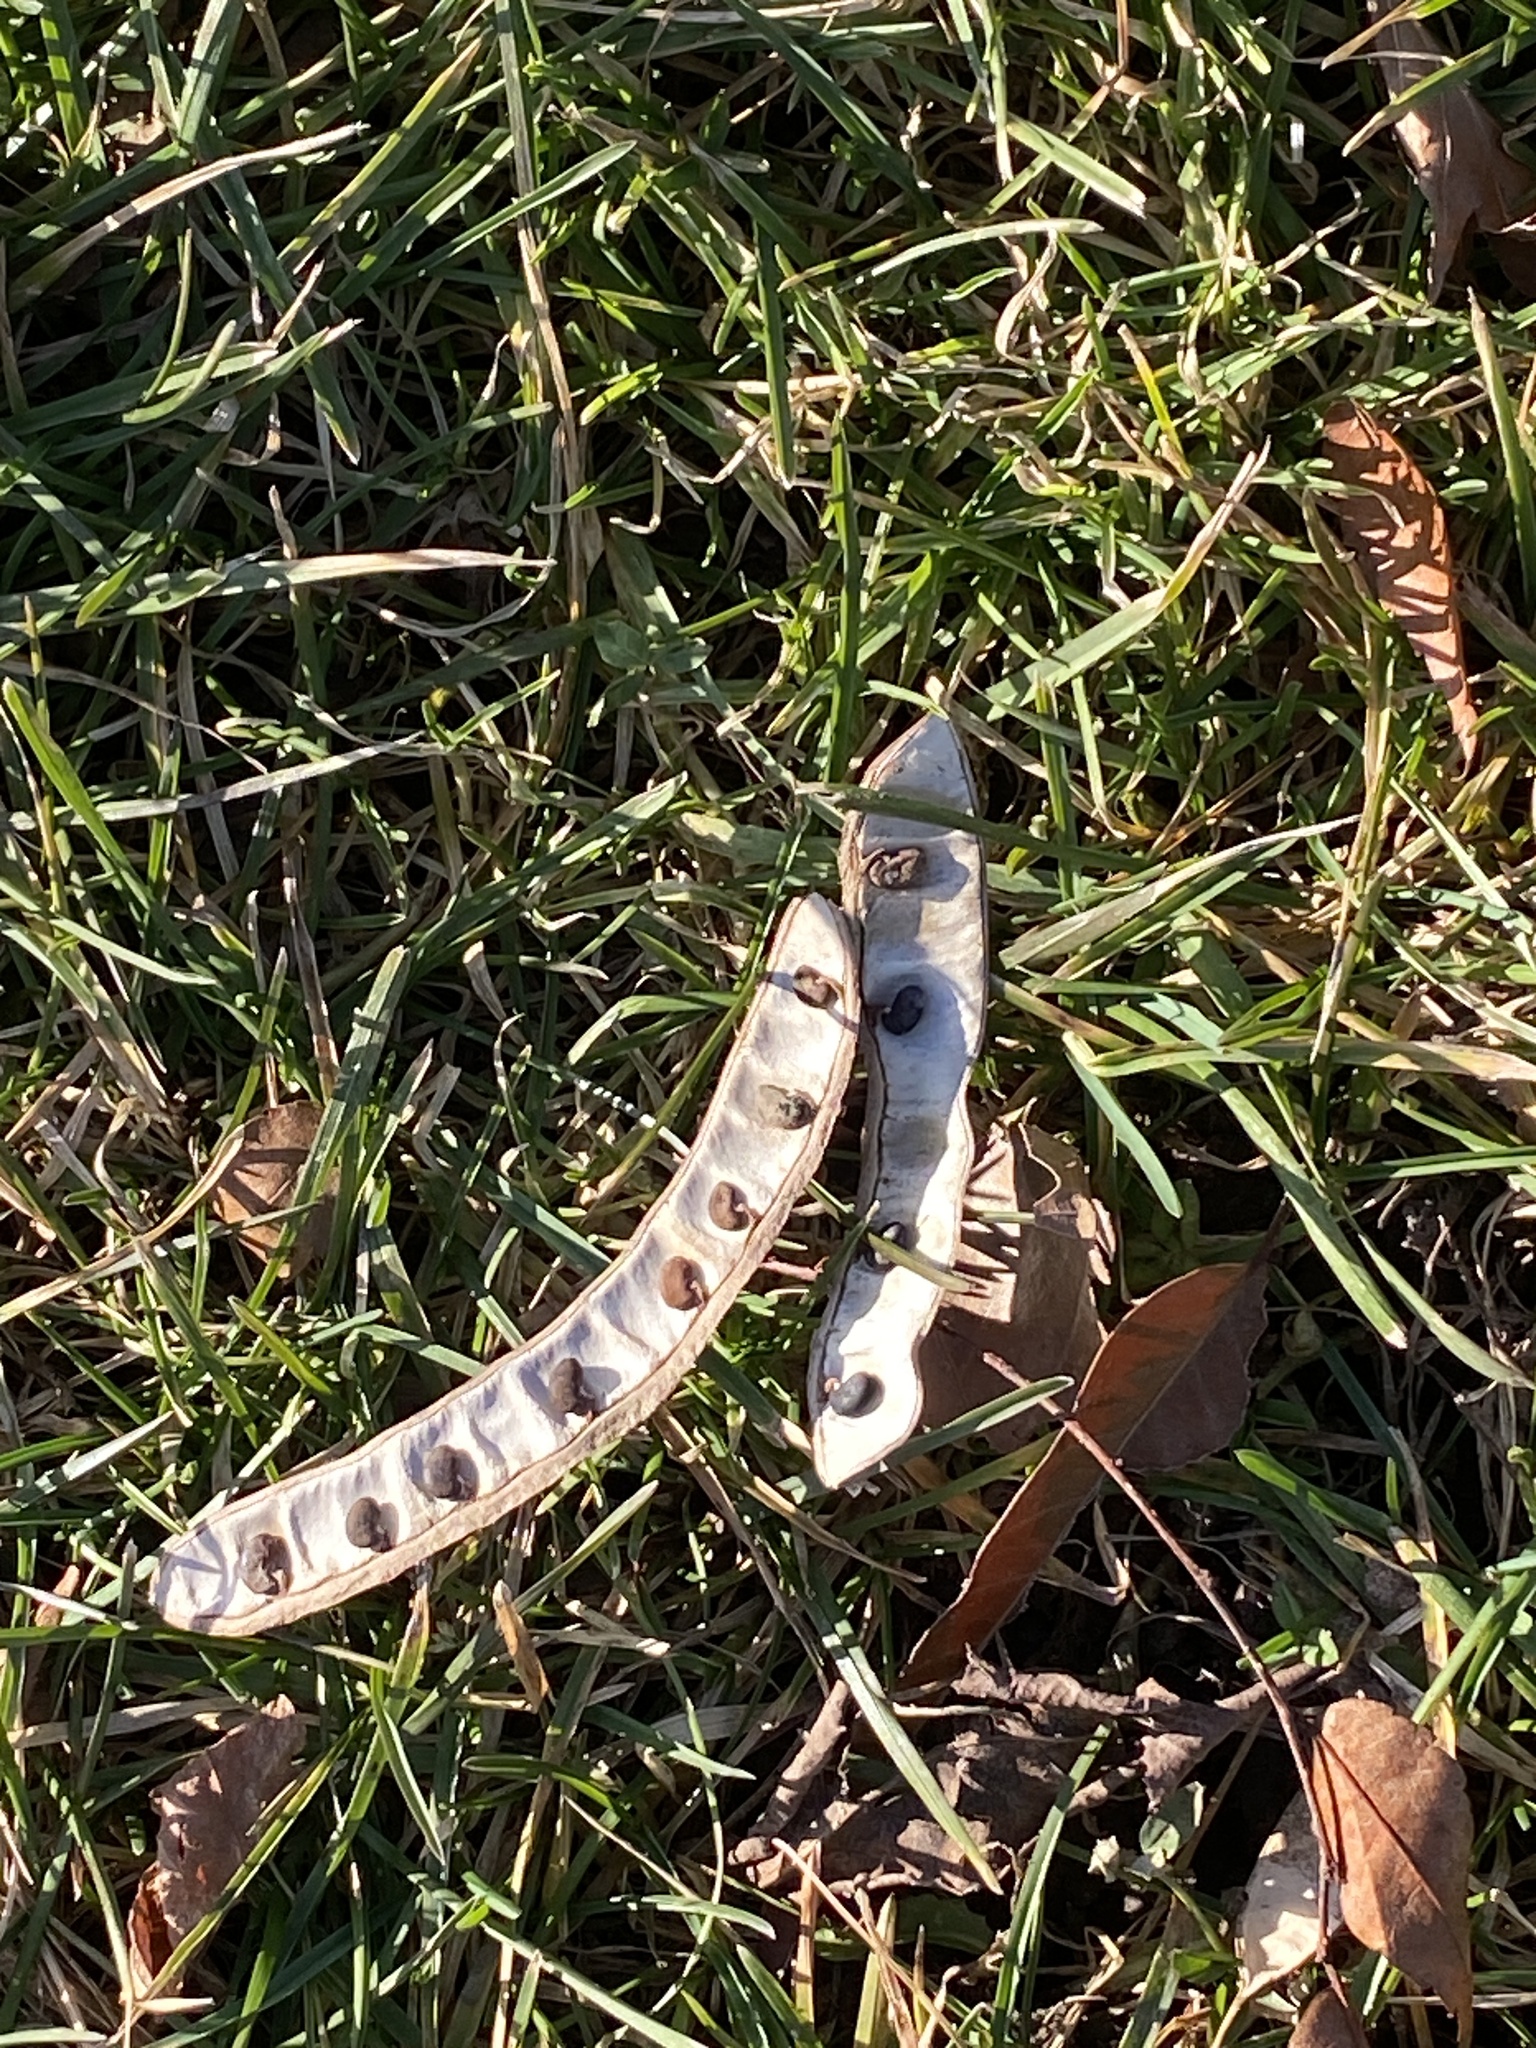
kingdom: Plantae
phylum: Tracheophyta
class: Magnoliopsida
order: Fabales
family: Fabaceae
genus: Robinia
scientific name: Robinia pseudoacacia
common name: Black locust
